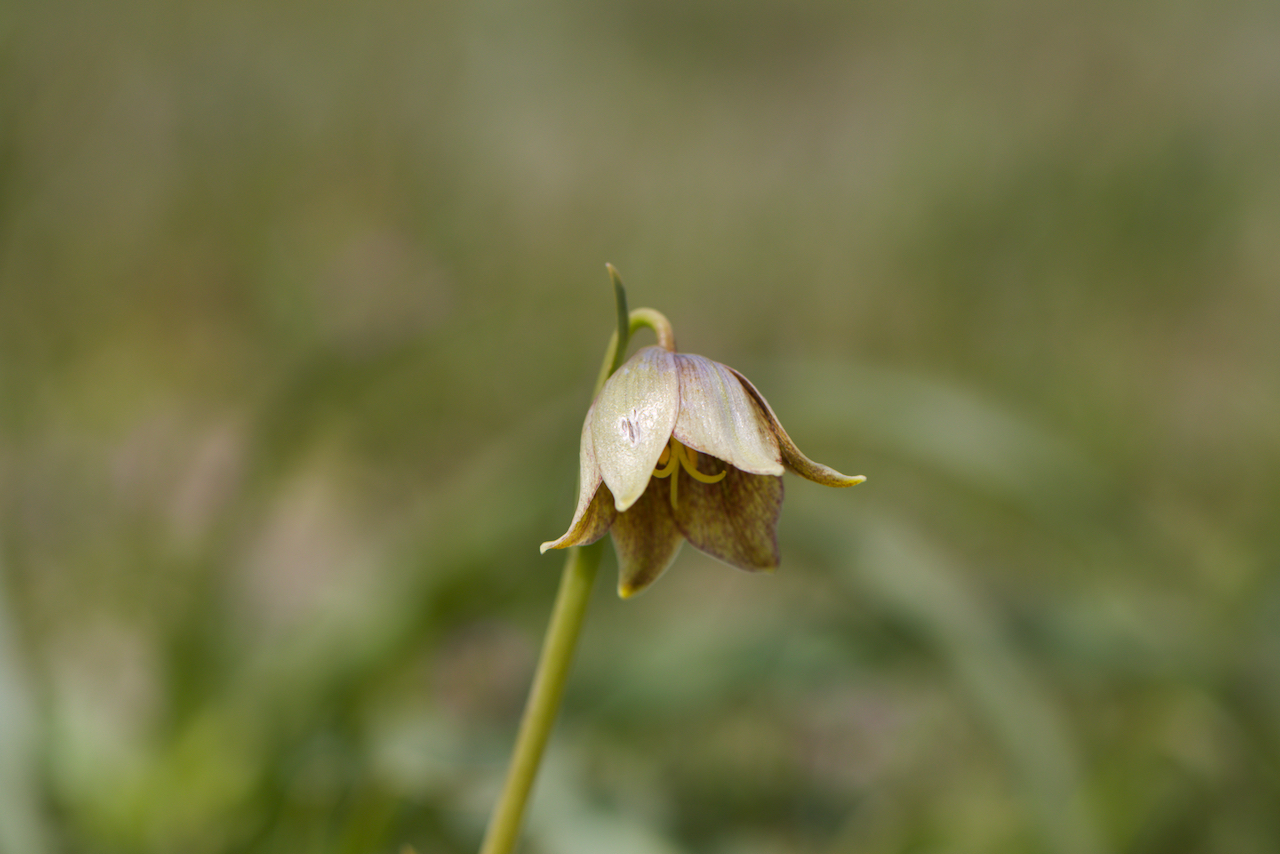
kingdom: Plantae
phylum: Tracheophyta
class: Liliopsida
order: Liliales
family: Liliaceae
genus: Fritillaria
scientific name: Fritillaria agrestis
